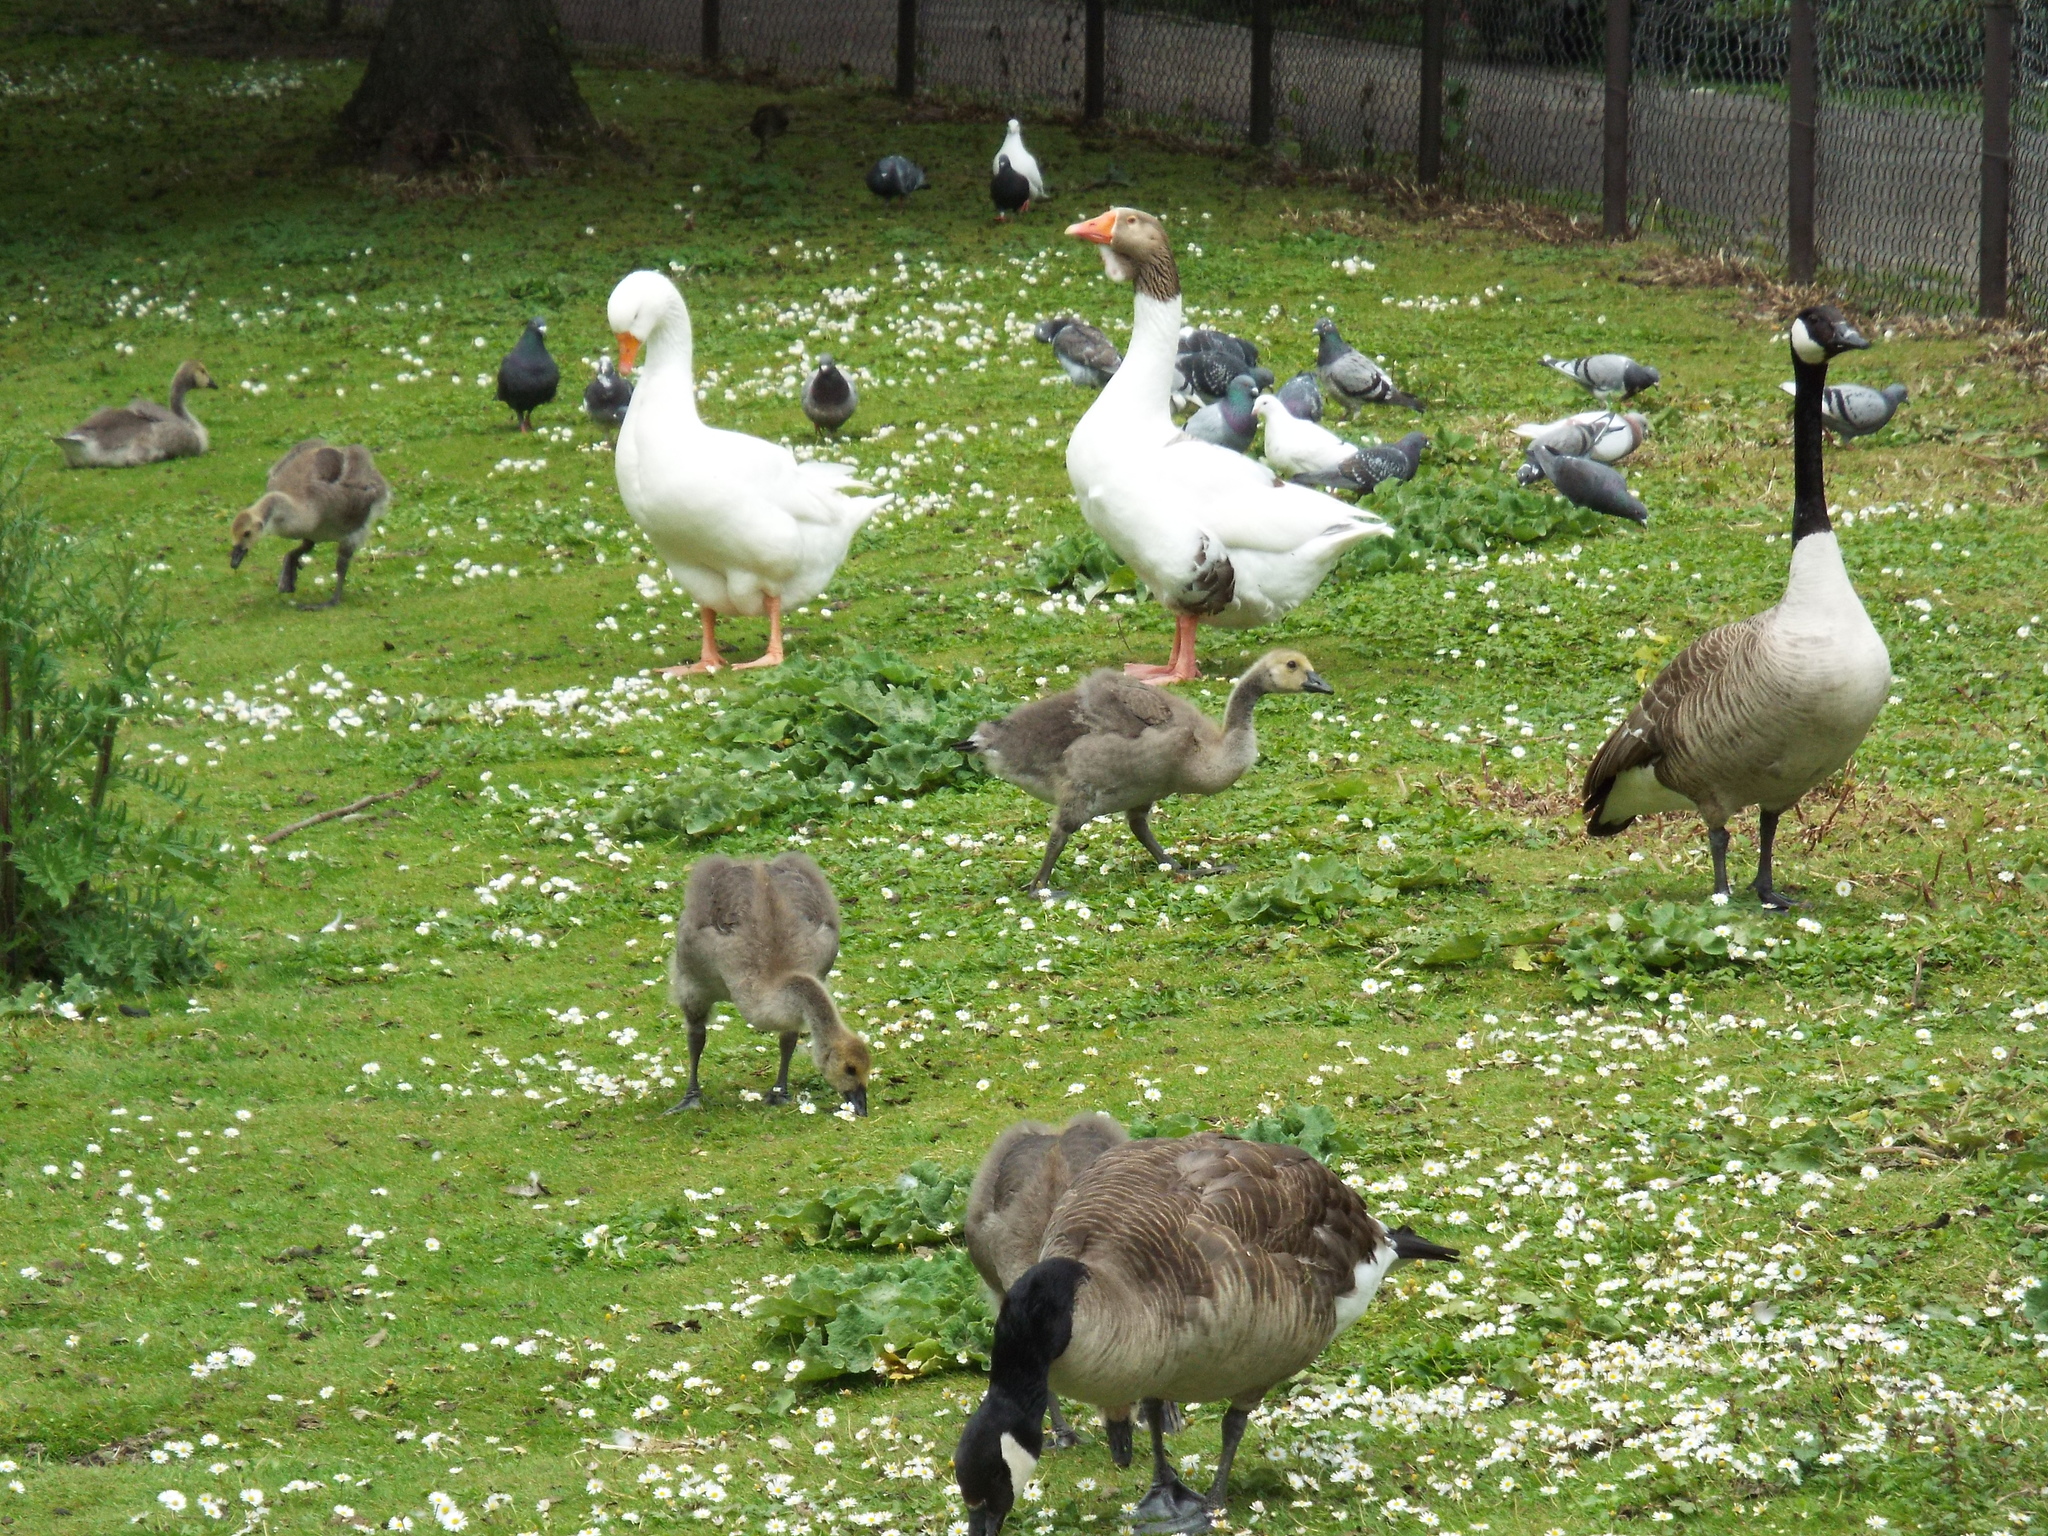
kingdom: Animalia
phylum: Chordata
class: Aves
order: Anseriformes
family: Anatidae
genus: Branta
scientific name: Branta canadensis
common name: Canada goose
